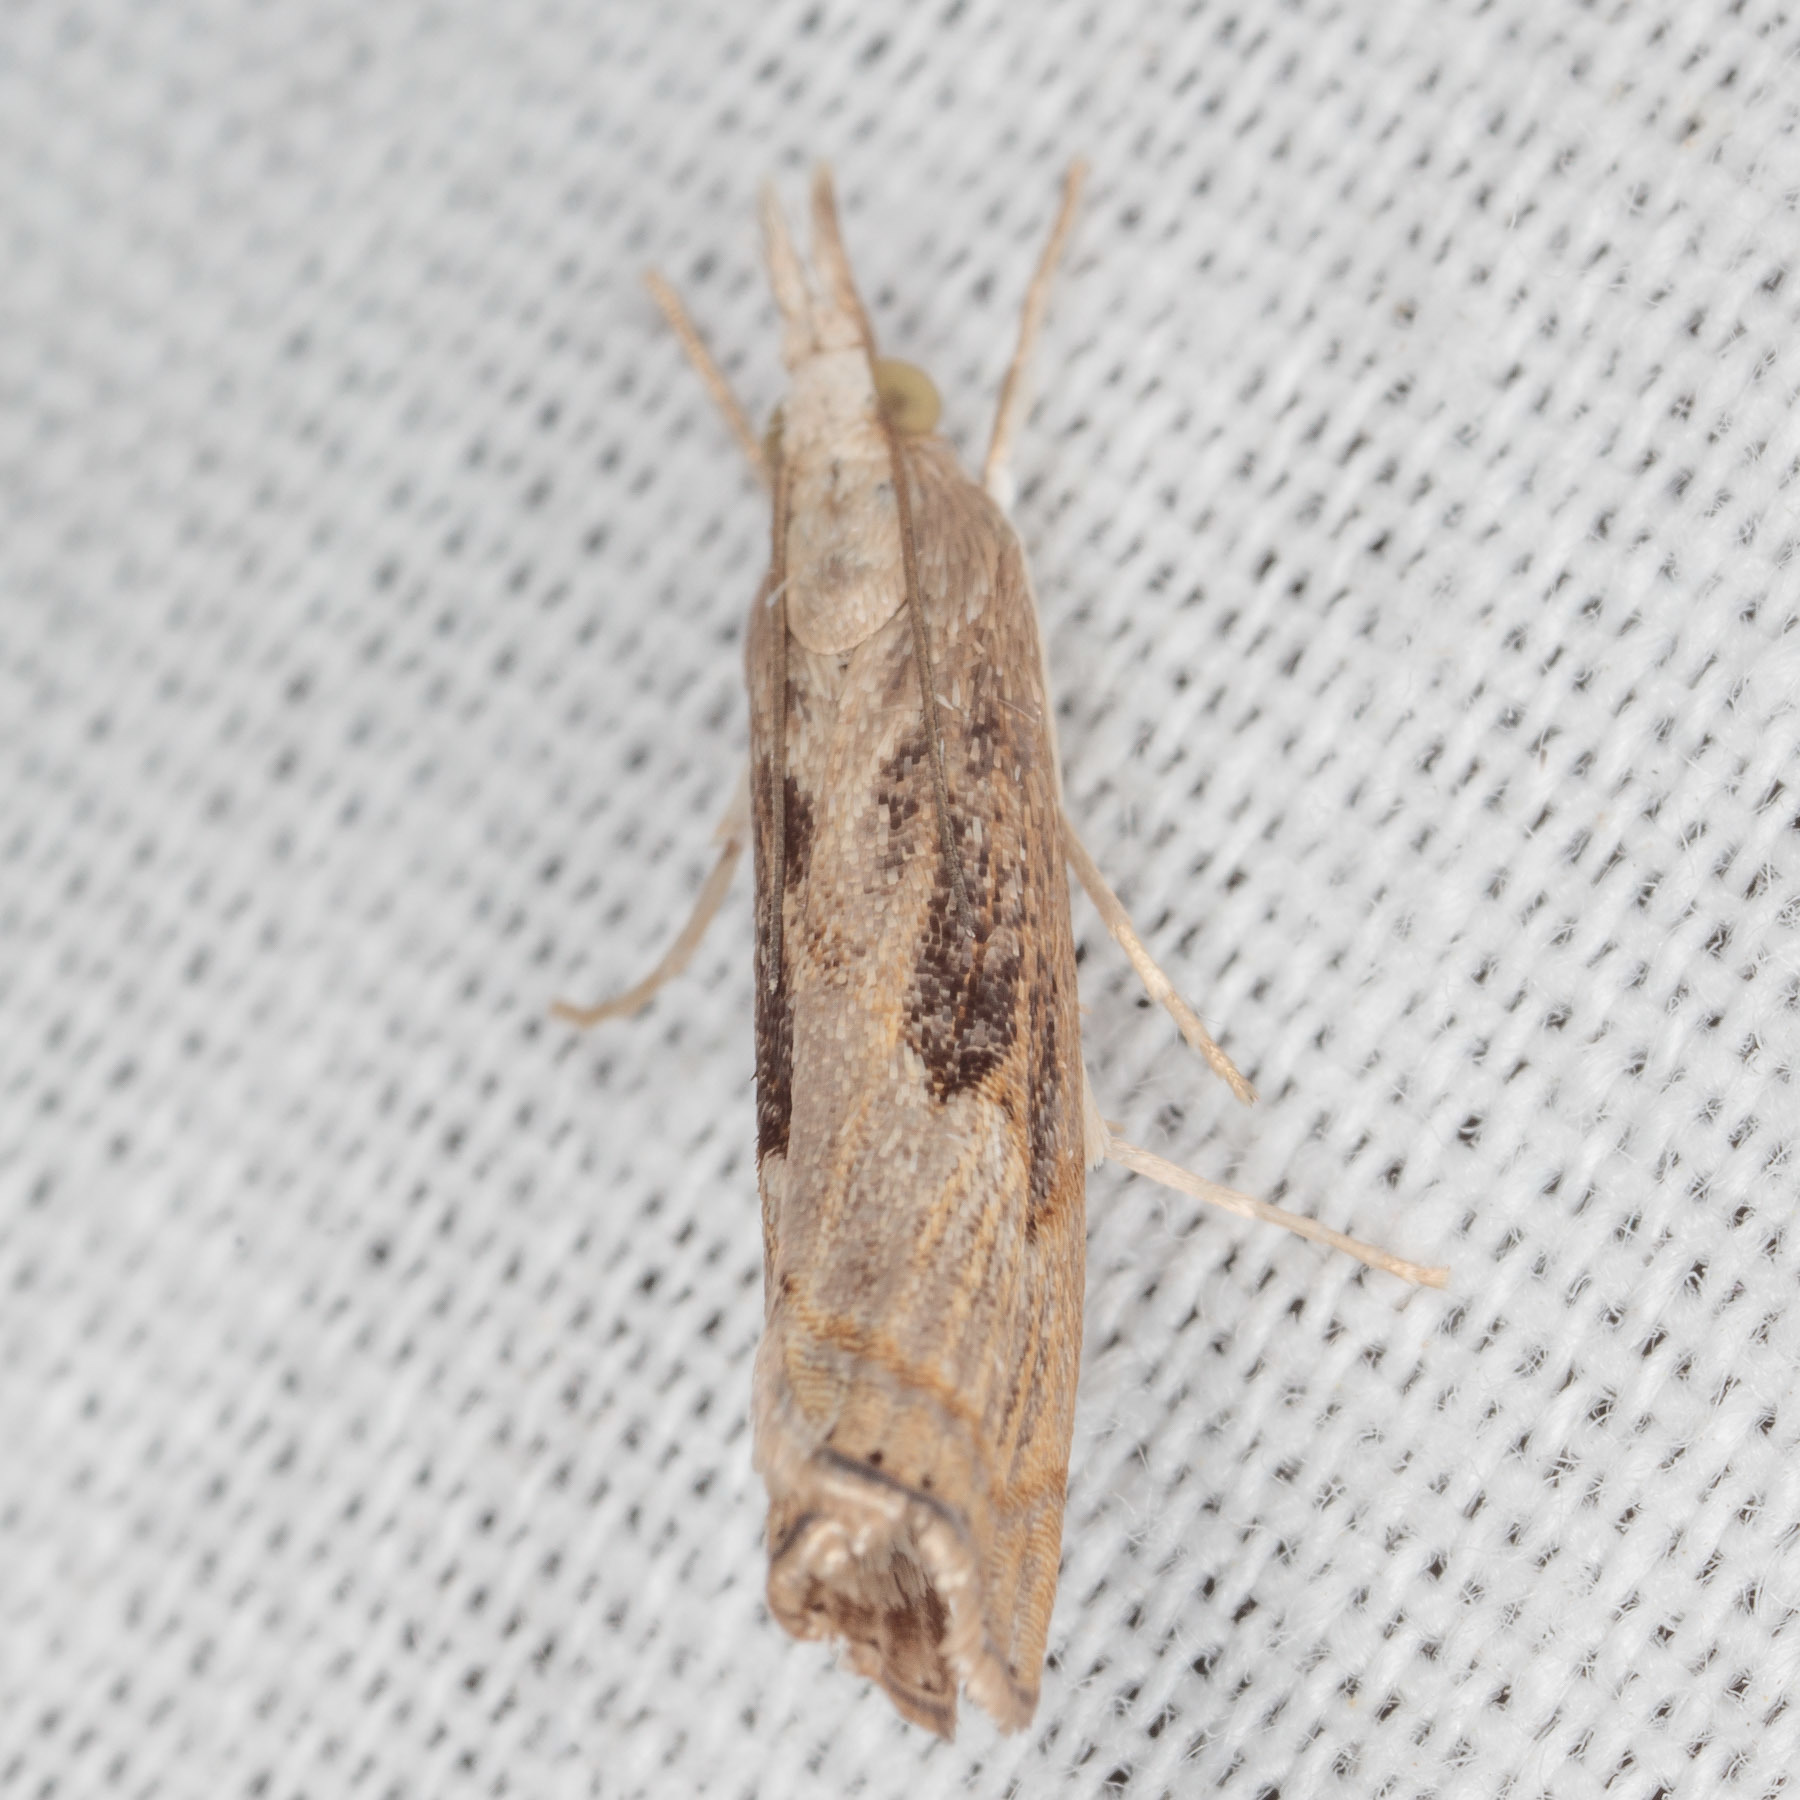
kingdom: Animalia
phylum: Arthropoda
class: Insecta
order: Lepidoptera
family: Crambidae
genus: Parapediasia
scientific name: Parapediasia teterellus
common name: Bluegrass webworm moth
